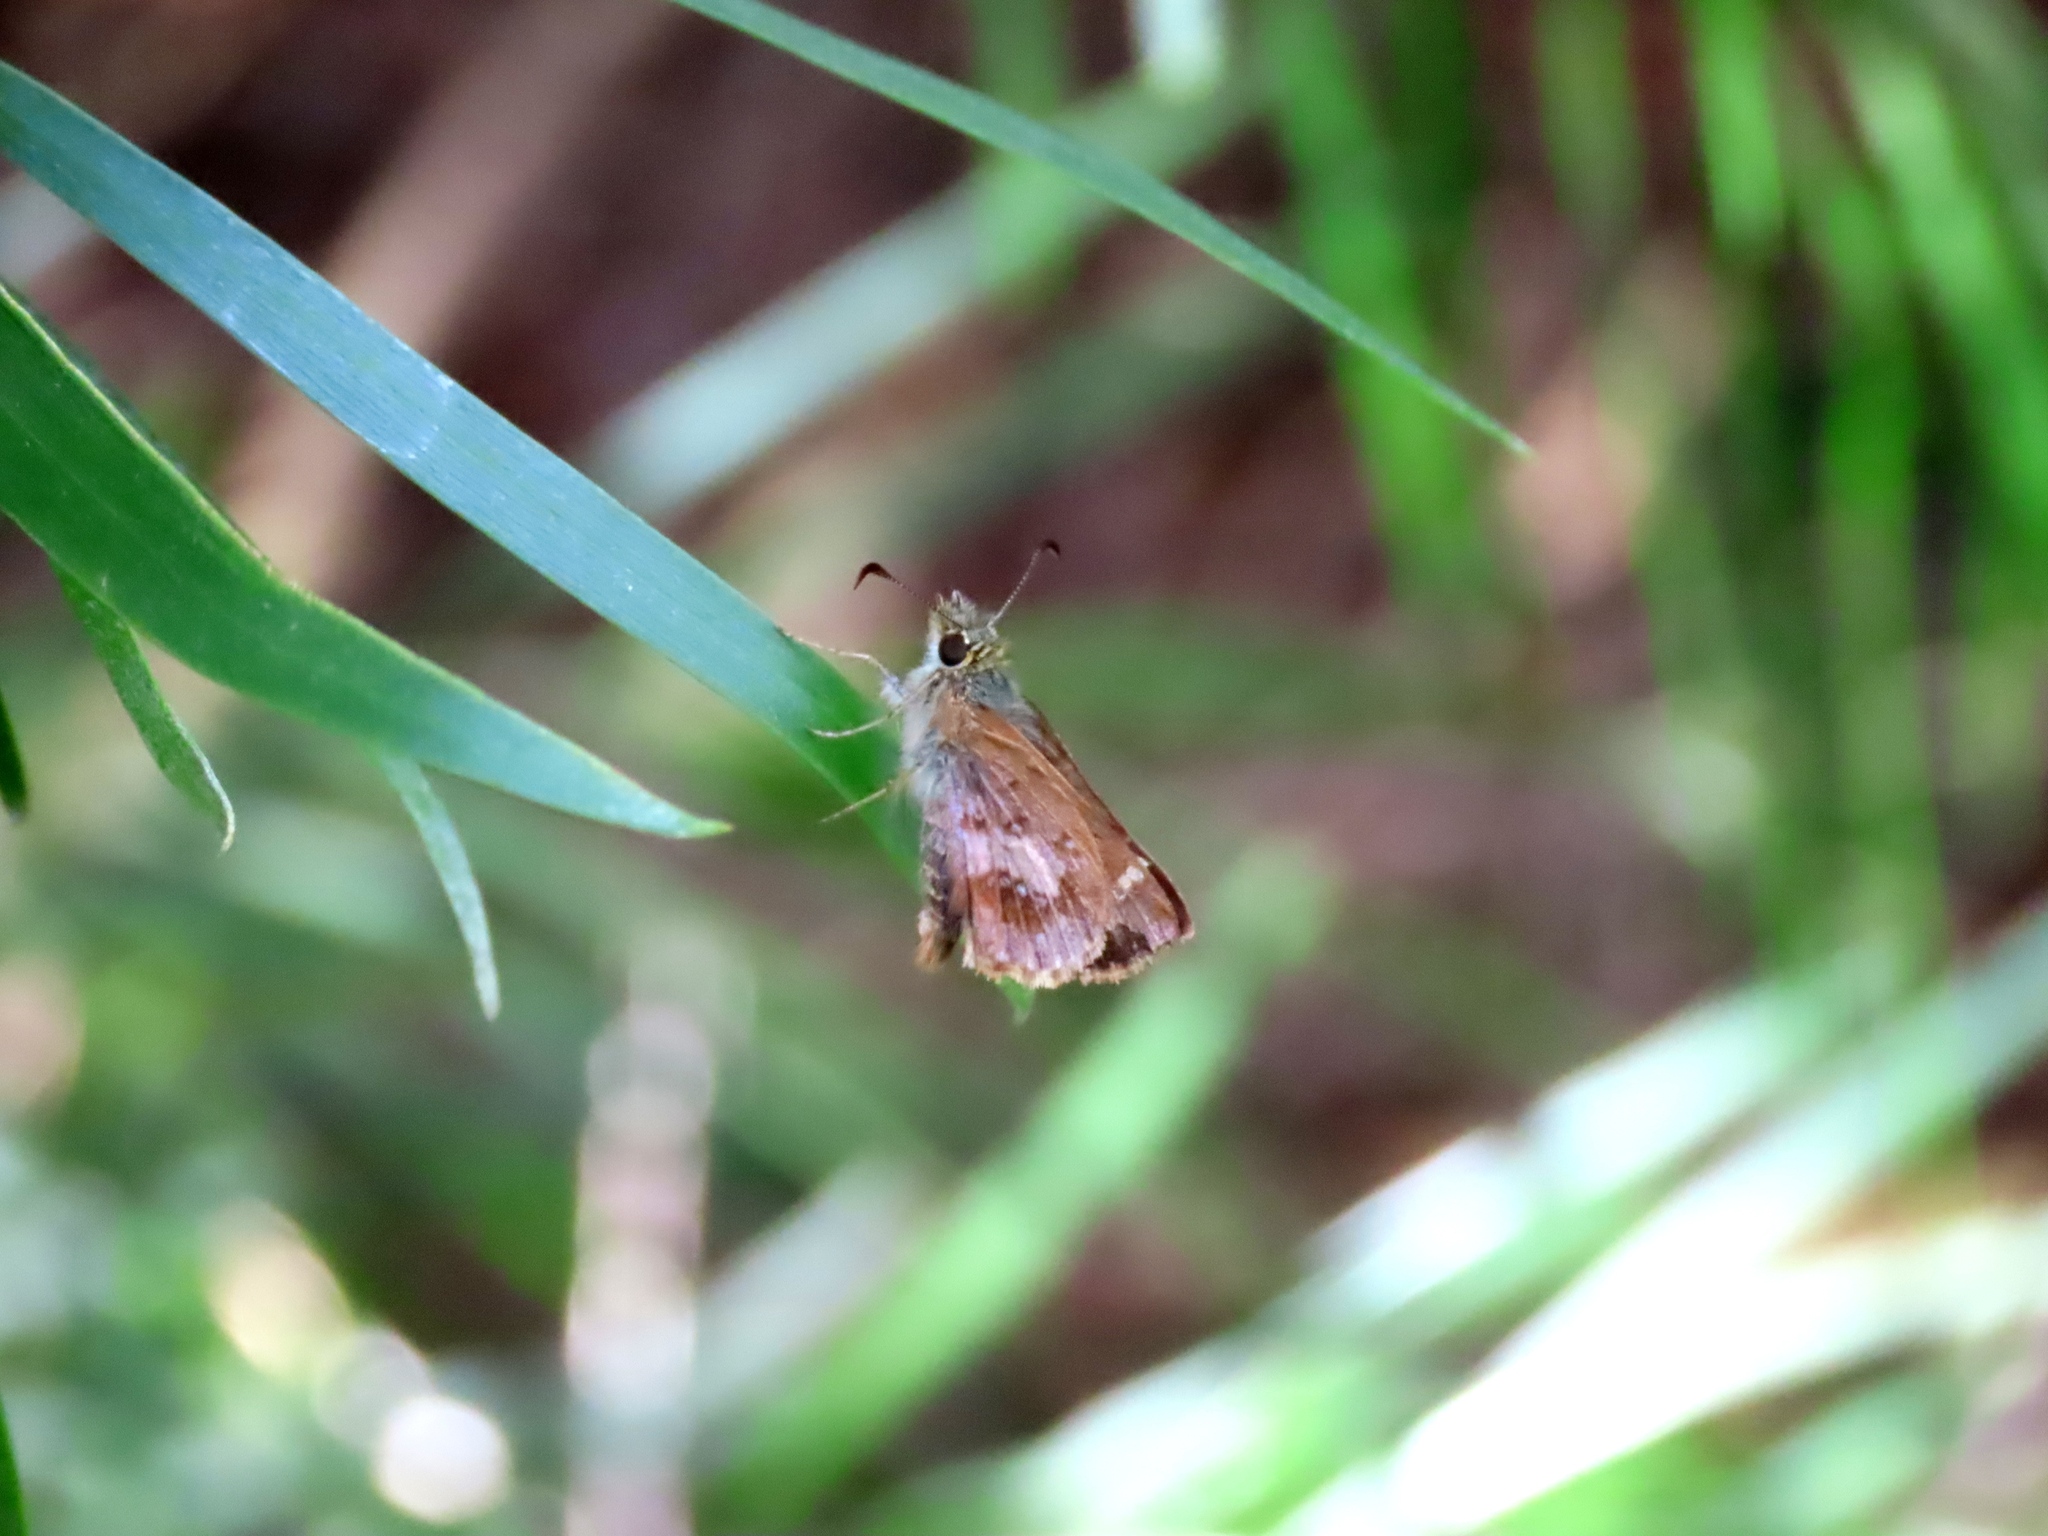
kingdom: Animalia
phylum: Arthropoda
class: Insecta
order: Lepidoptera
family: Hesperiidae
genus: Dispar
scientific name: Dispar compacta
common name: Barred skipper
